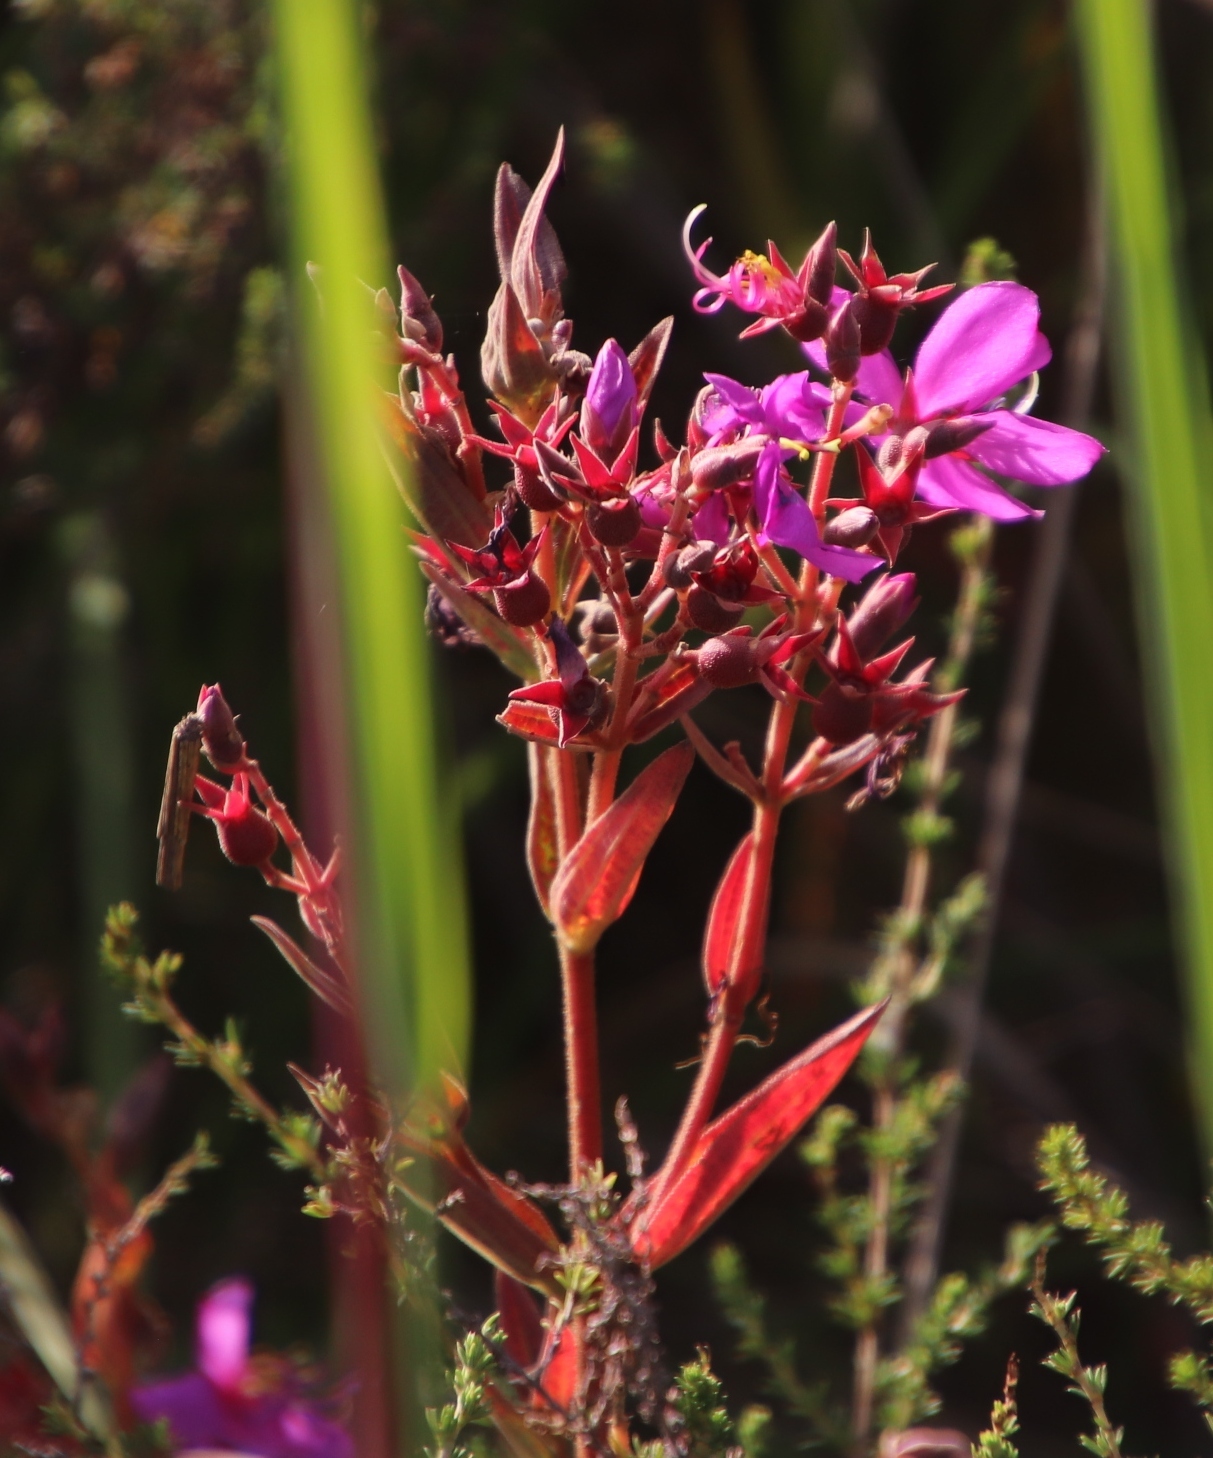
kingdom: Plantae
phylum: Tracheophyta
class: Magnoliopsida
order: Myrtales
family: Melastomataceae
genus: Argyrella
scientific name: Argyrella canescens
